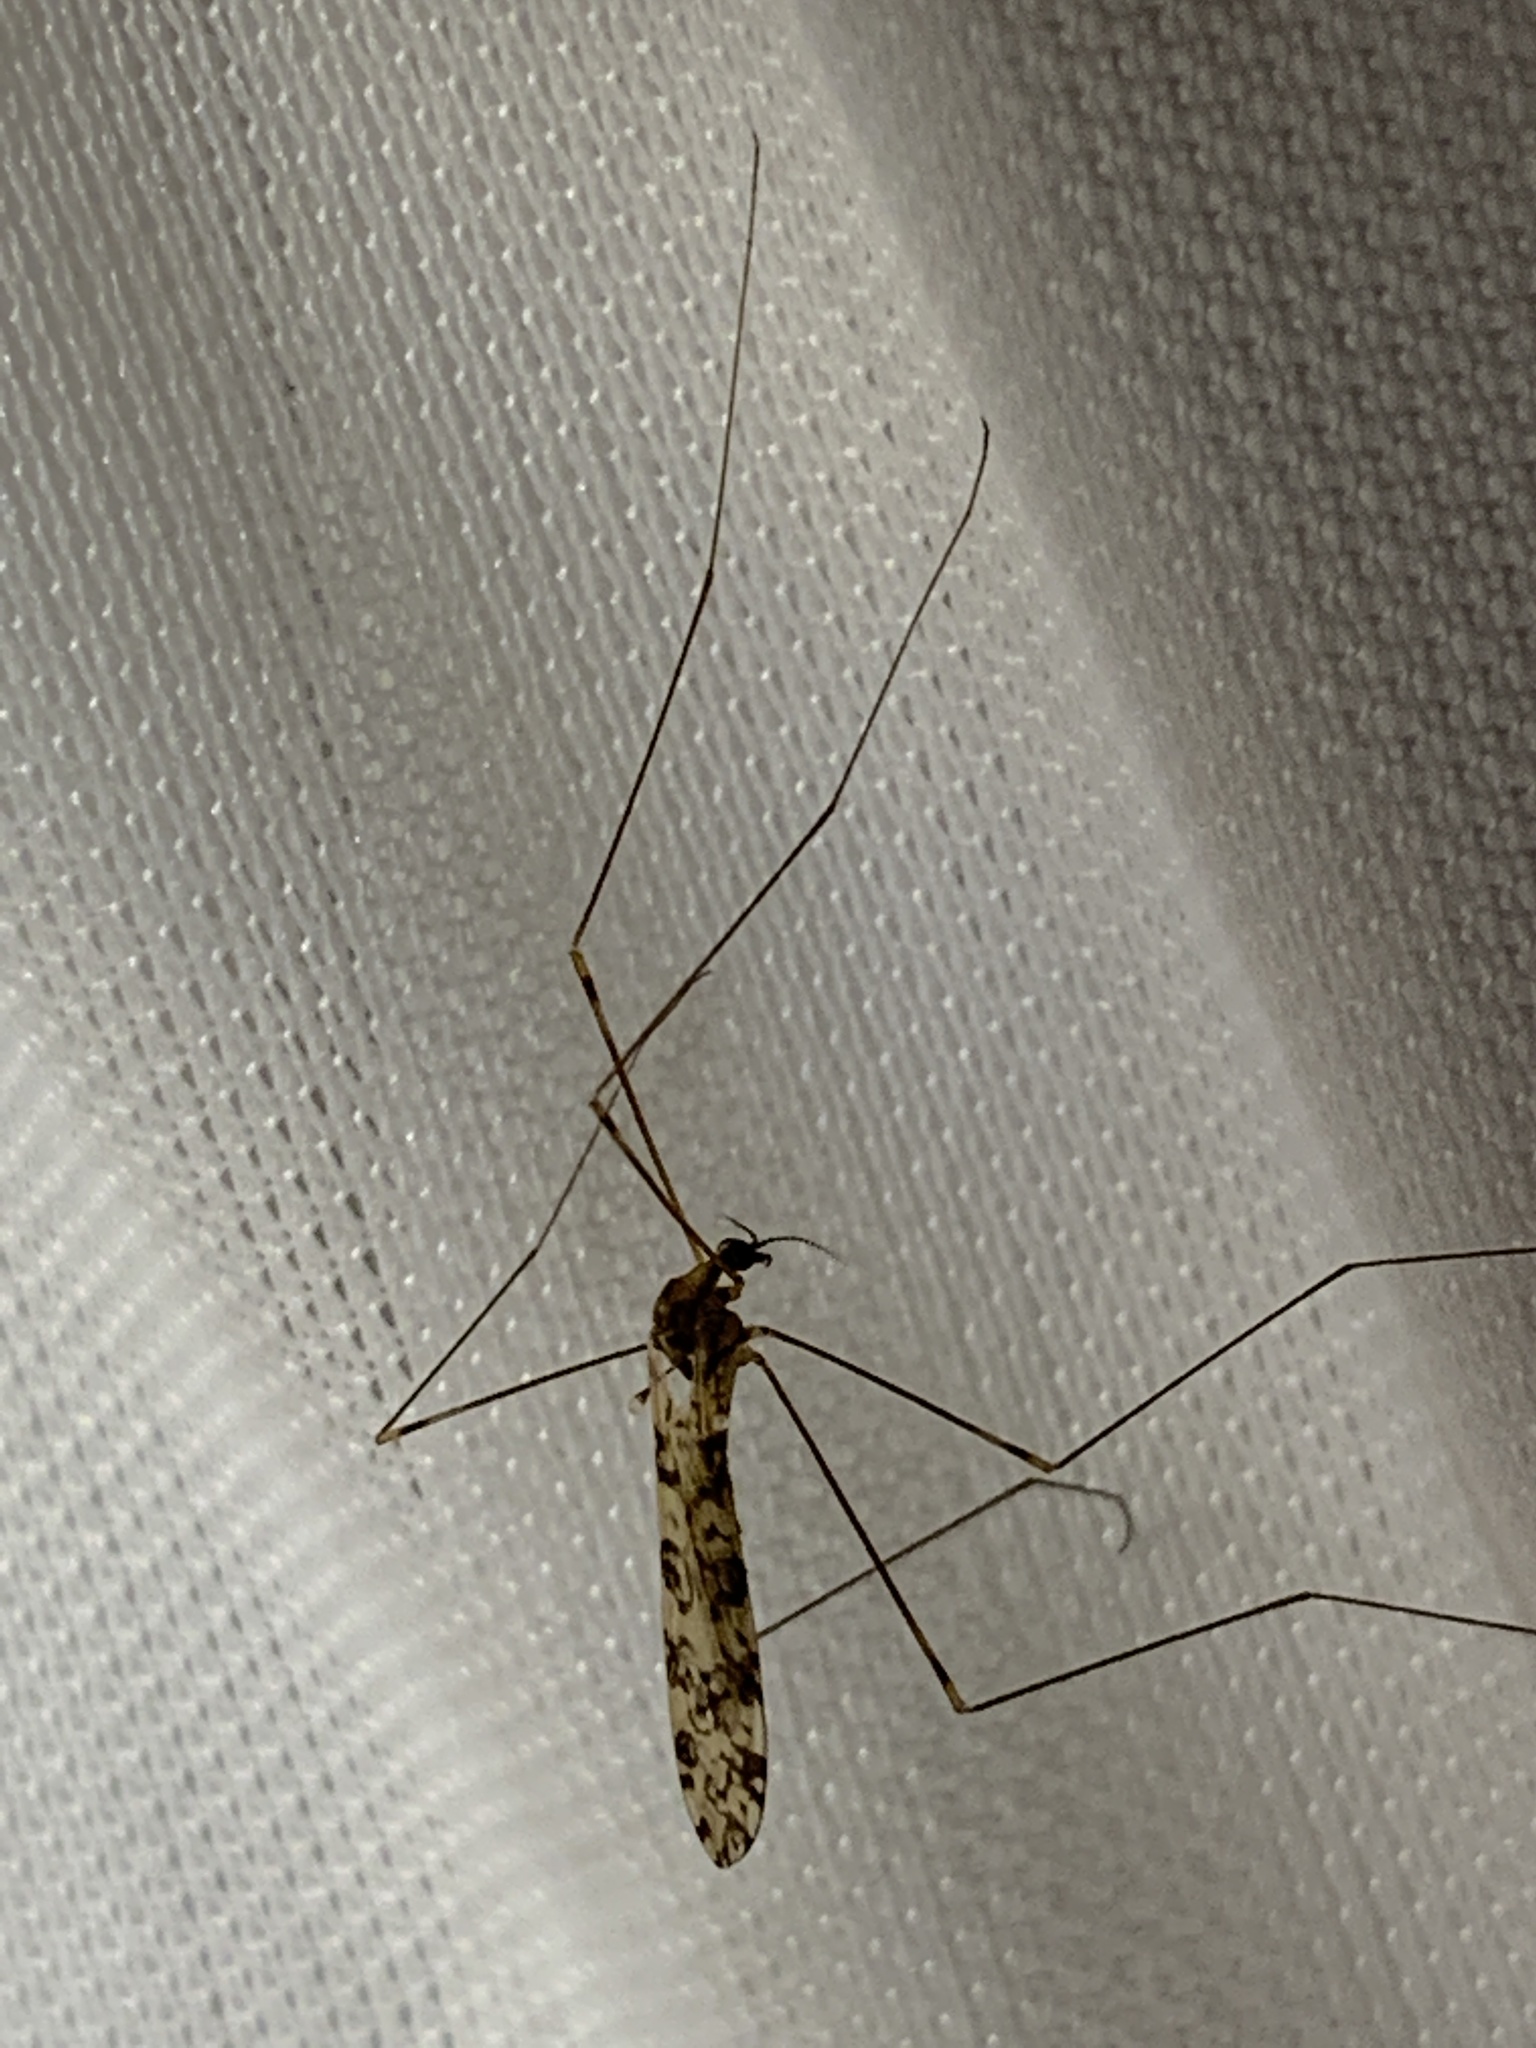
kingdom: Animalia
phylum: Arthropoda
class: Insecta
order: Diptera
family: Limoniidae
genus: Limonia
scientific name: Limonia annulata
